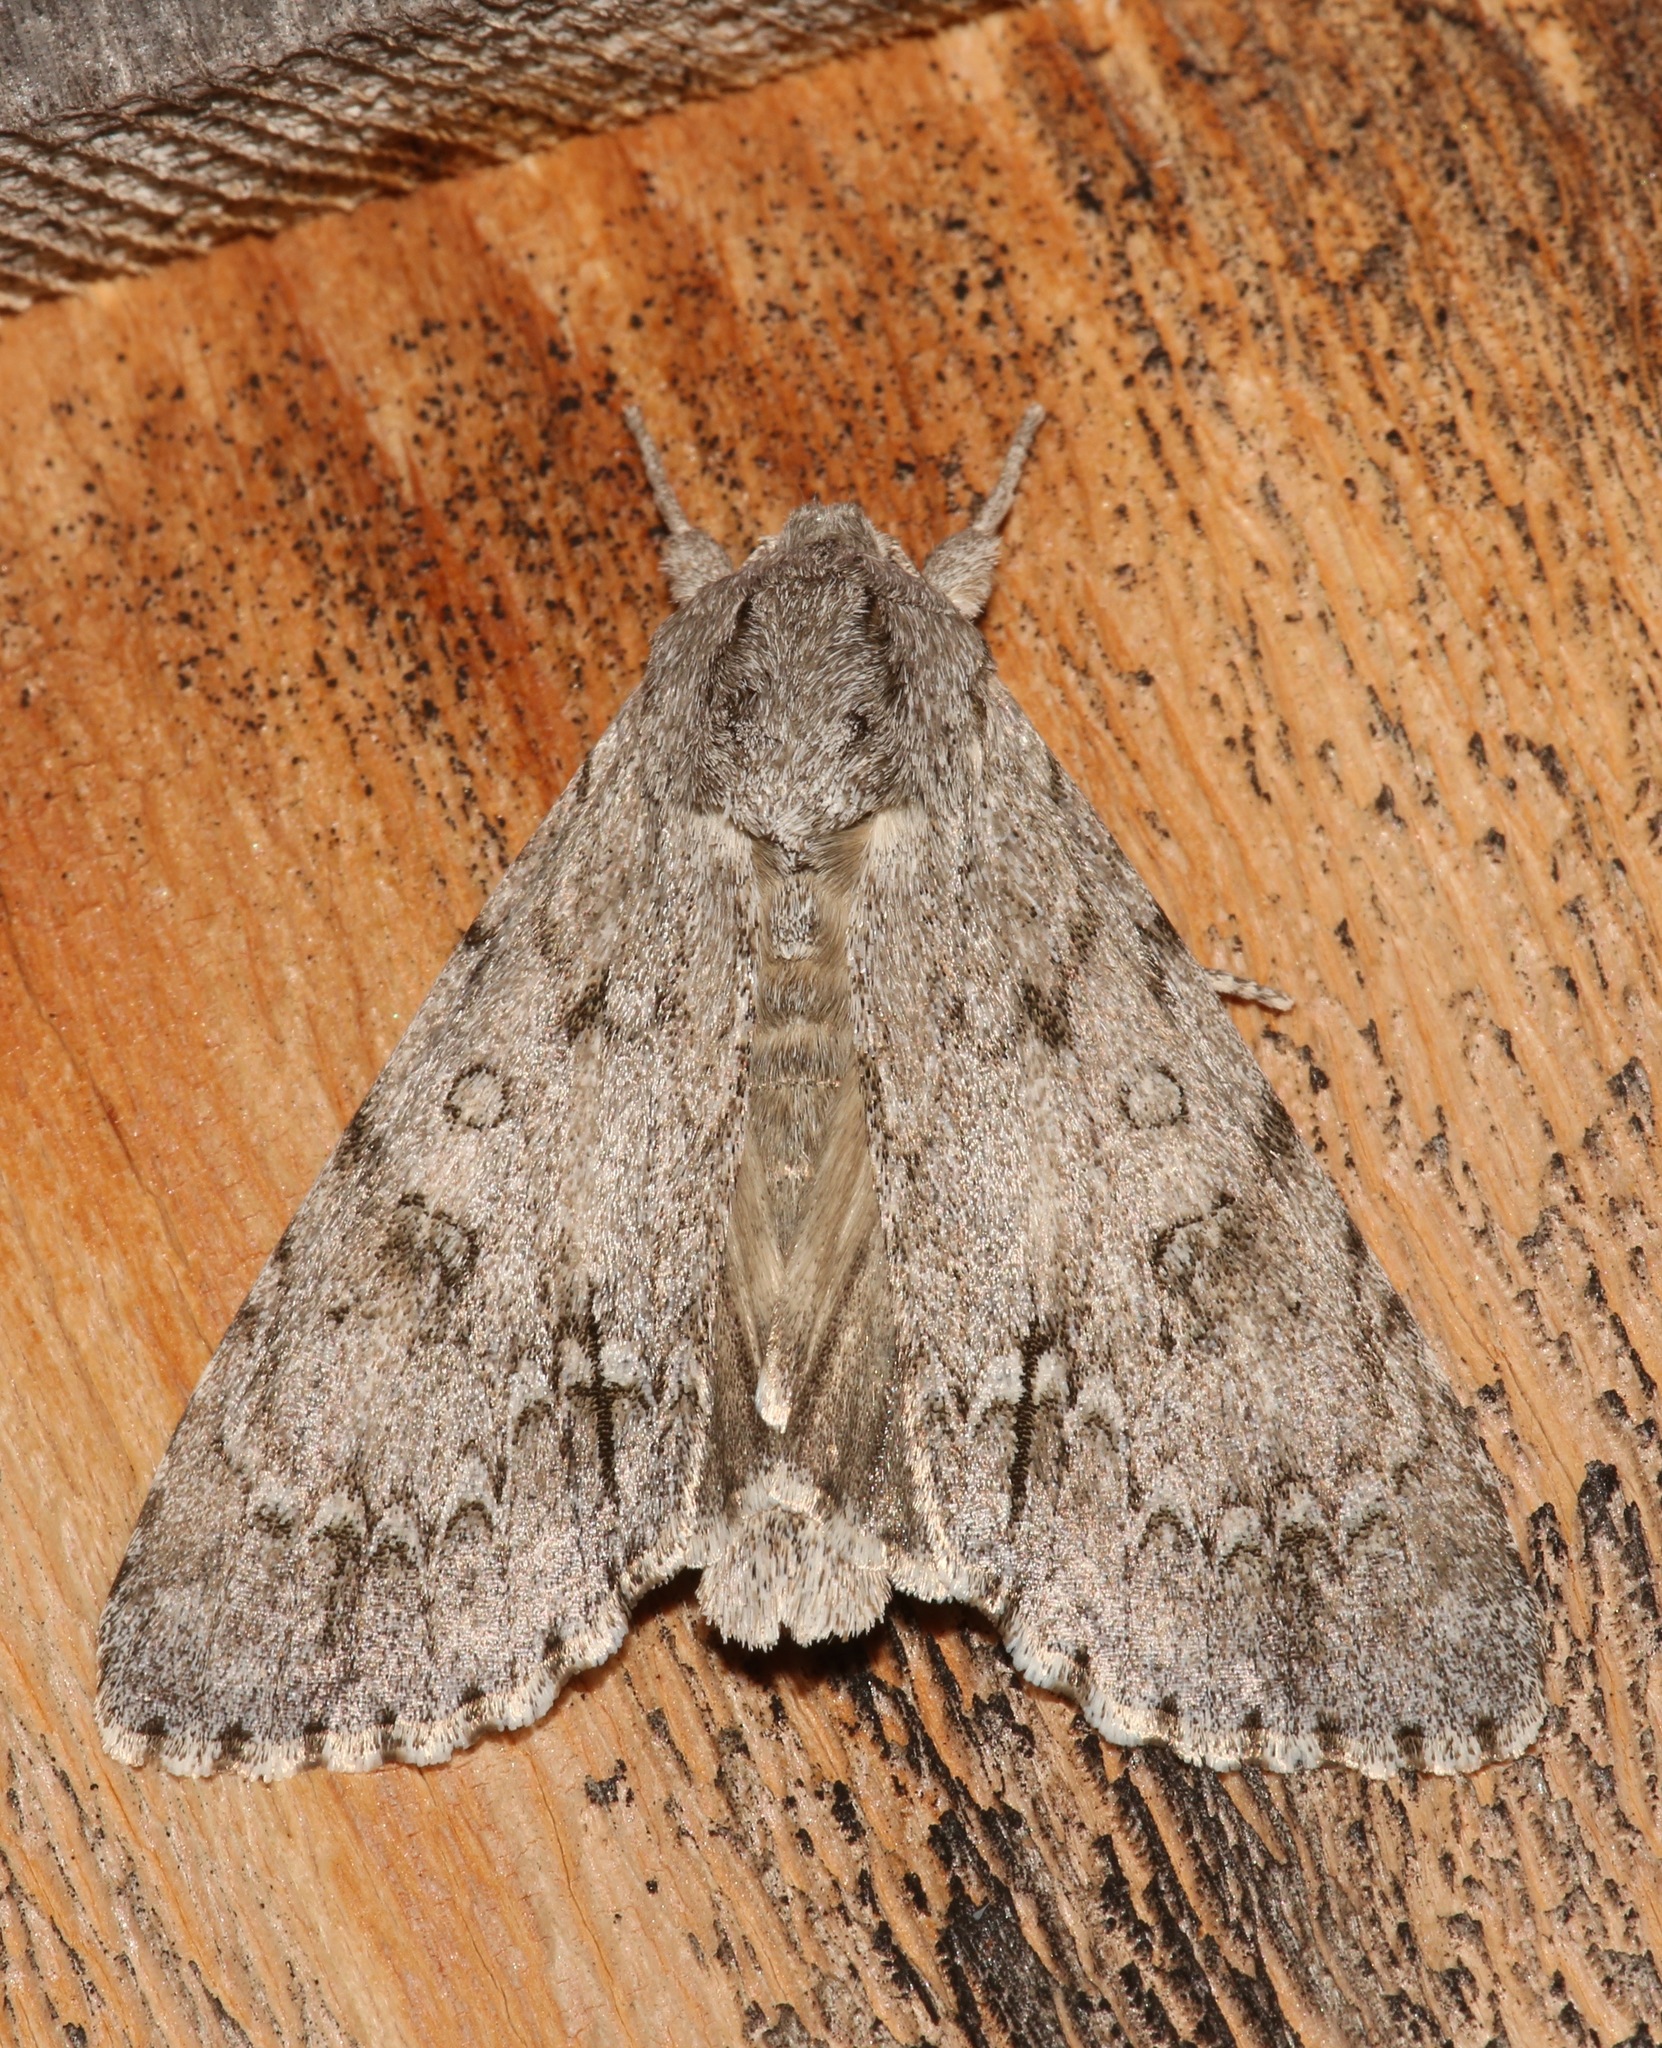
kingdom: Animalia
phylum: Arthropoda
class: Insecta
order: Lepidoptera
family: Noctuidae
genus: Acronicta
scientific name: Acronicta americana
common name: American dagger
